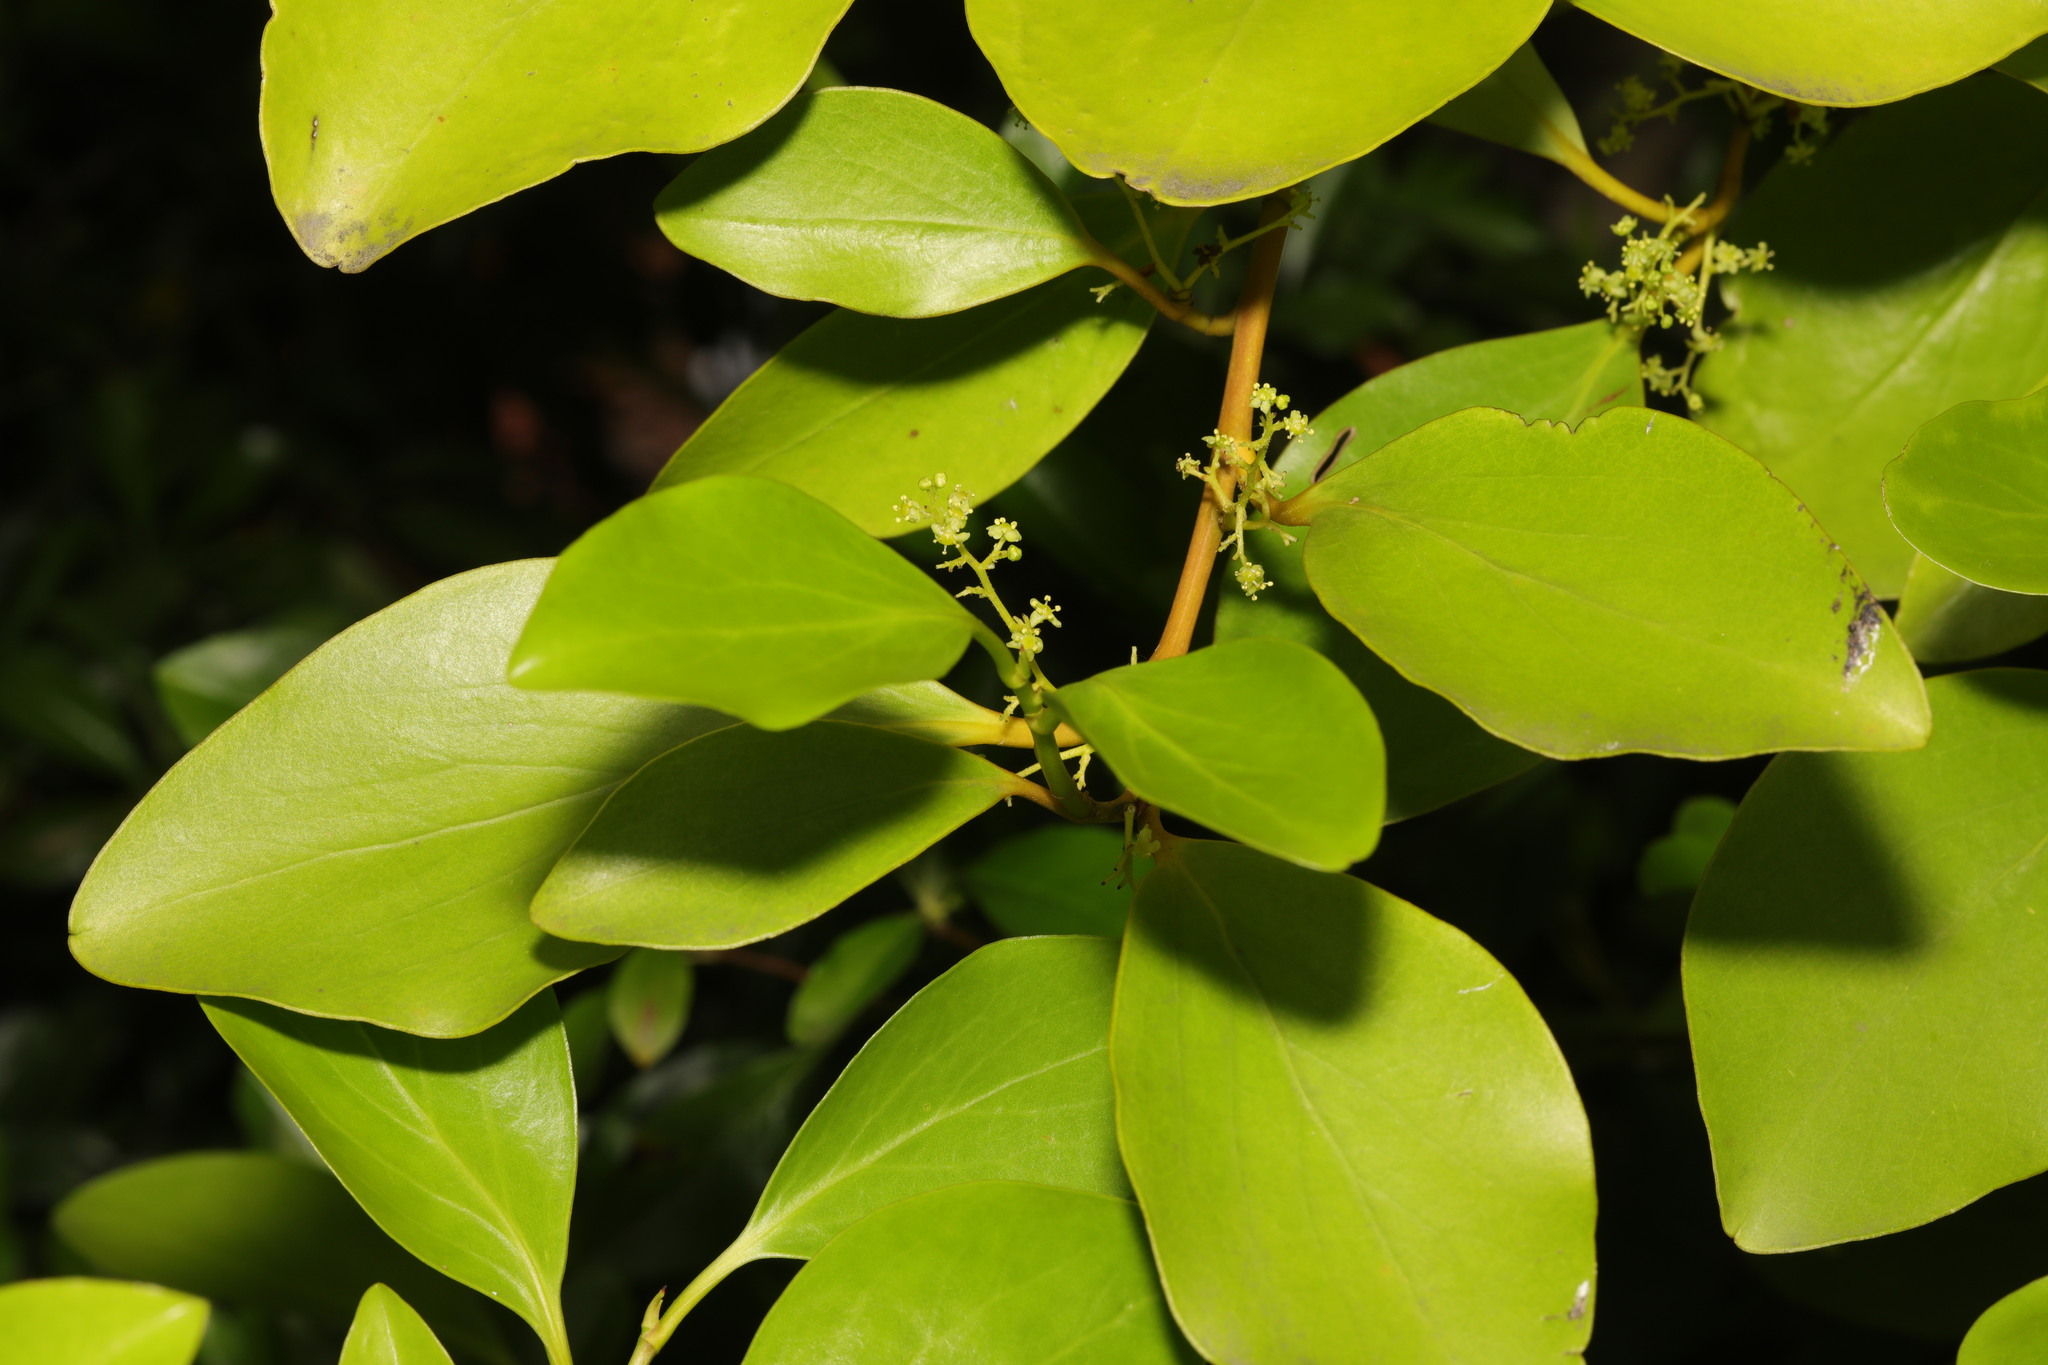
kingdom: Plantae
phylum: Tracheophyta
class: Magnoliopsida
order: Apiales
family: Griseliniaceae
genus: Griselinia
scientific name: Griselinia littoralis
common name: New zealand broadleaf
